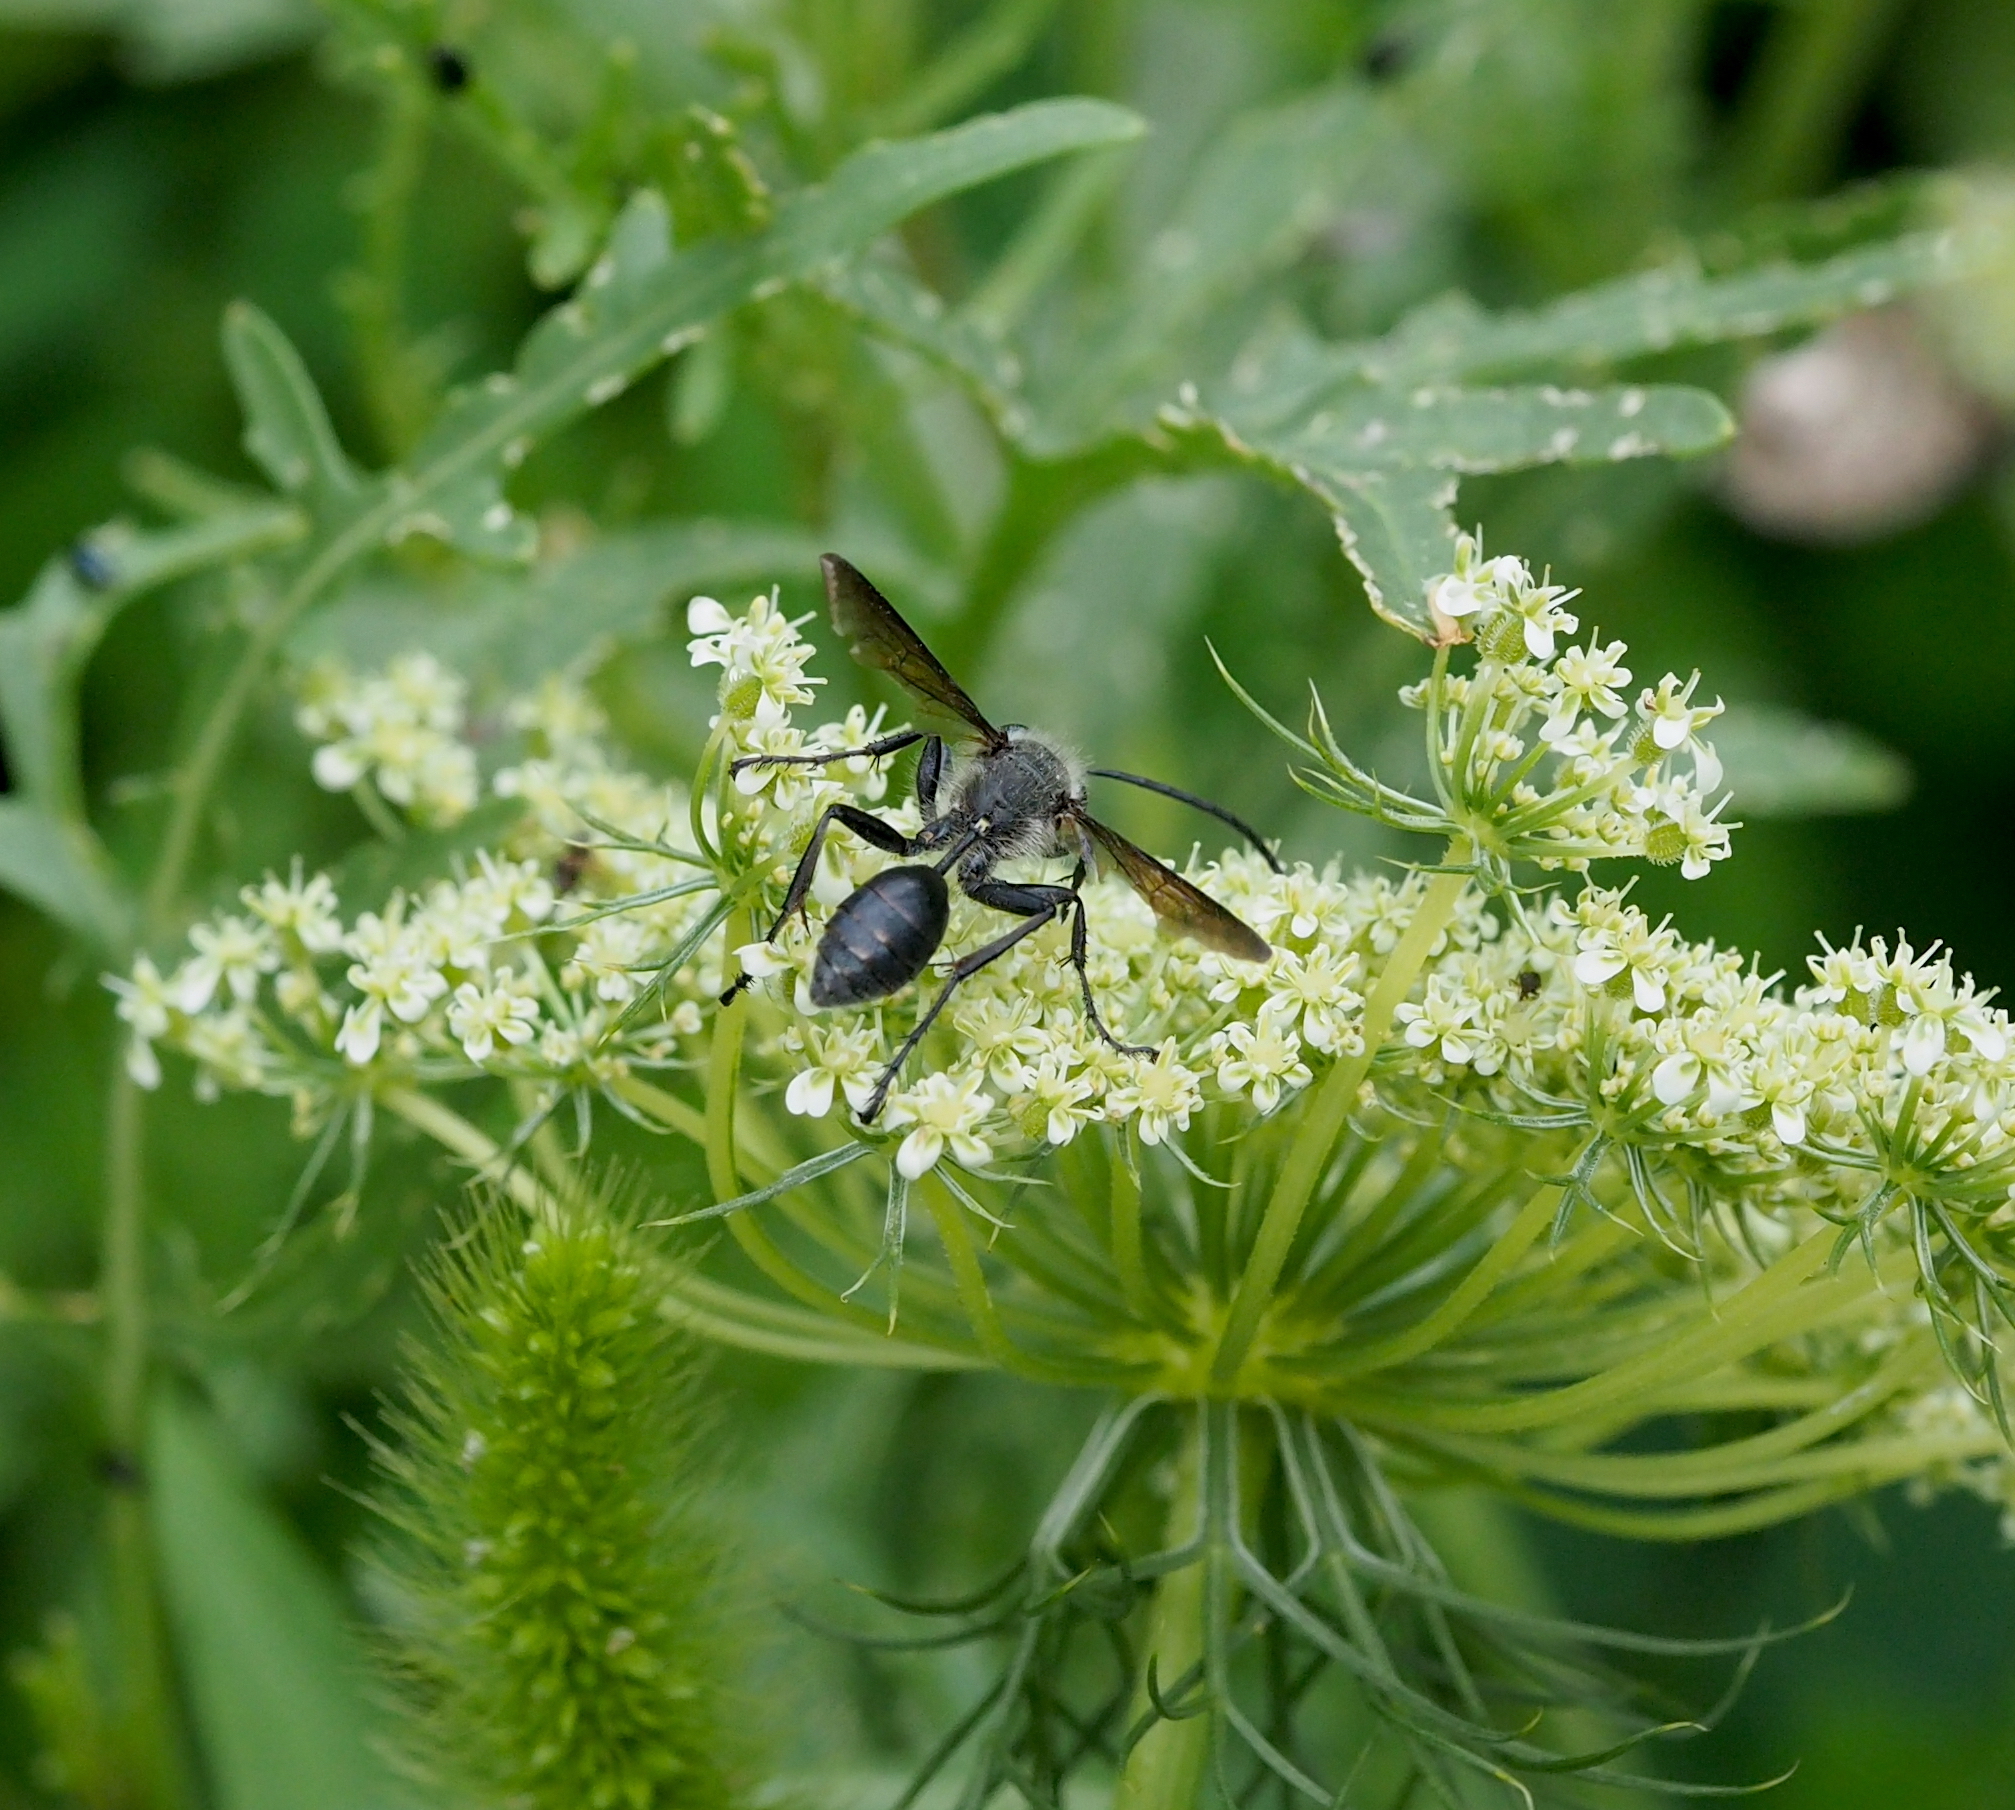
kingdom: Animalia
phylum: Arthropoda
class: Insecta
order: Hymenoptera
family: Sphecidae
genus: Isodontia
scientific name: Isodontia mexicana
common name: Mud dauber
